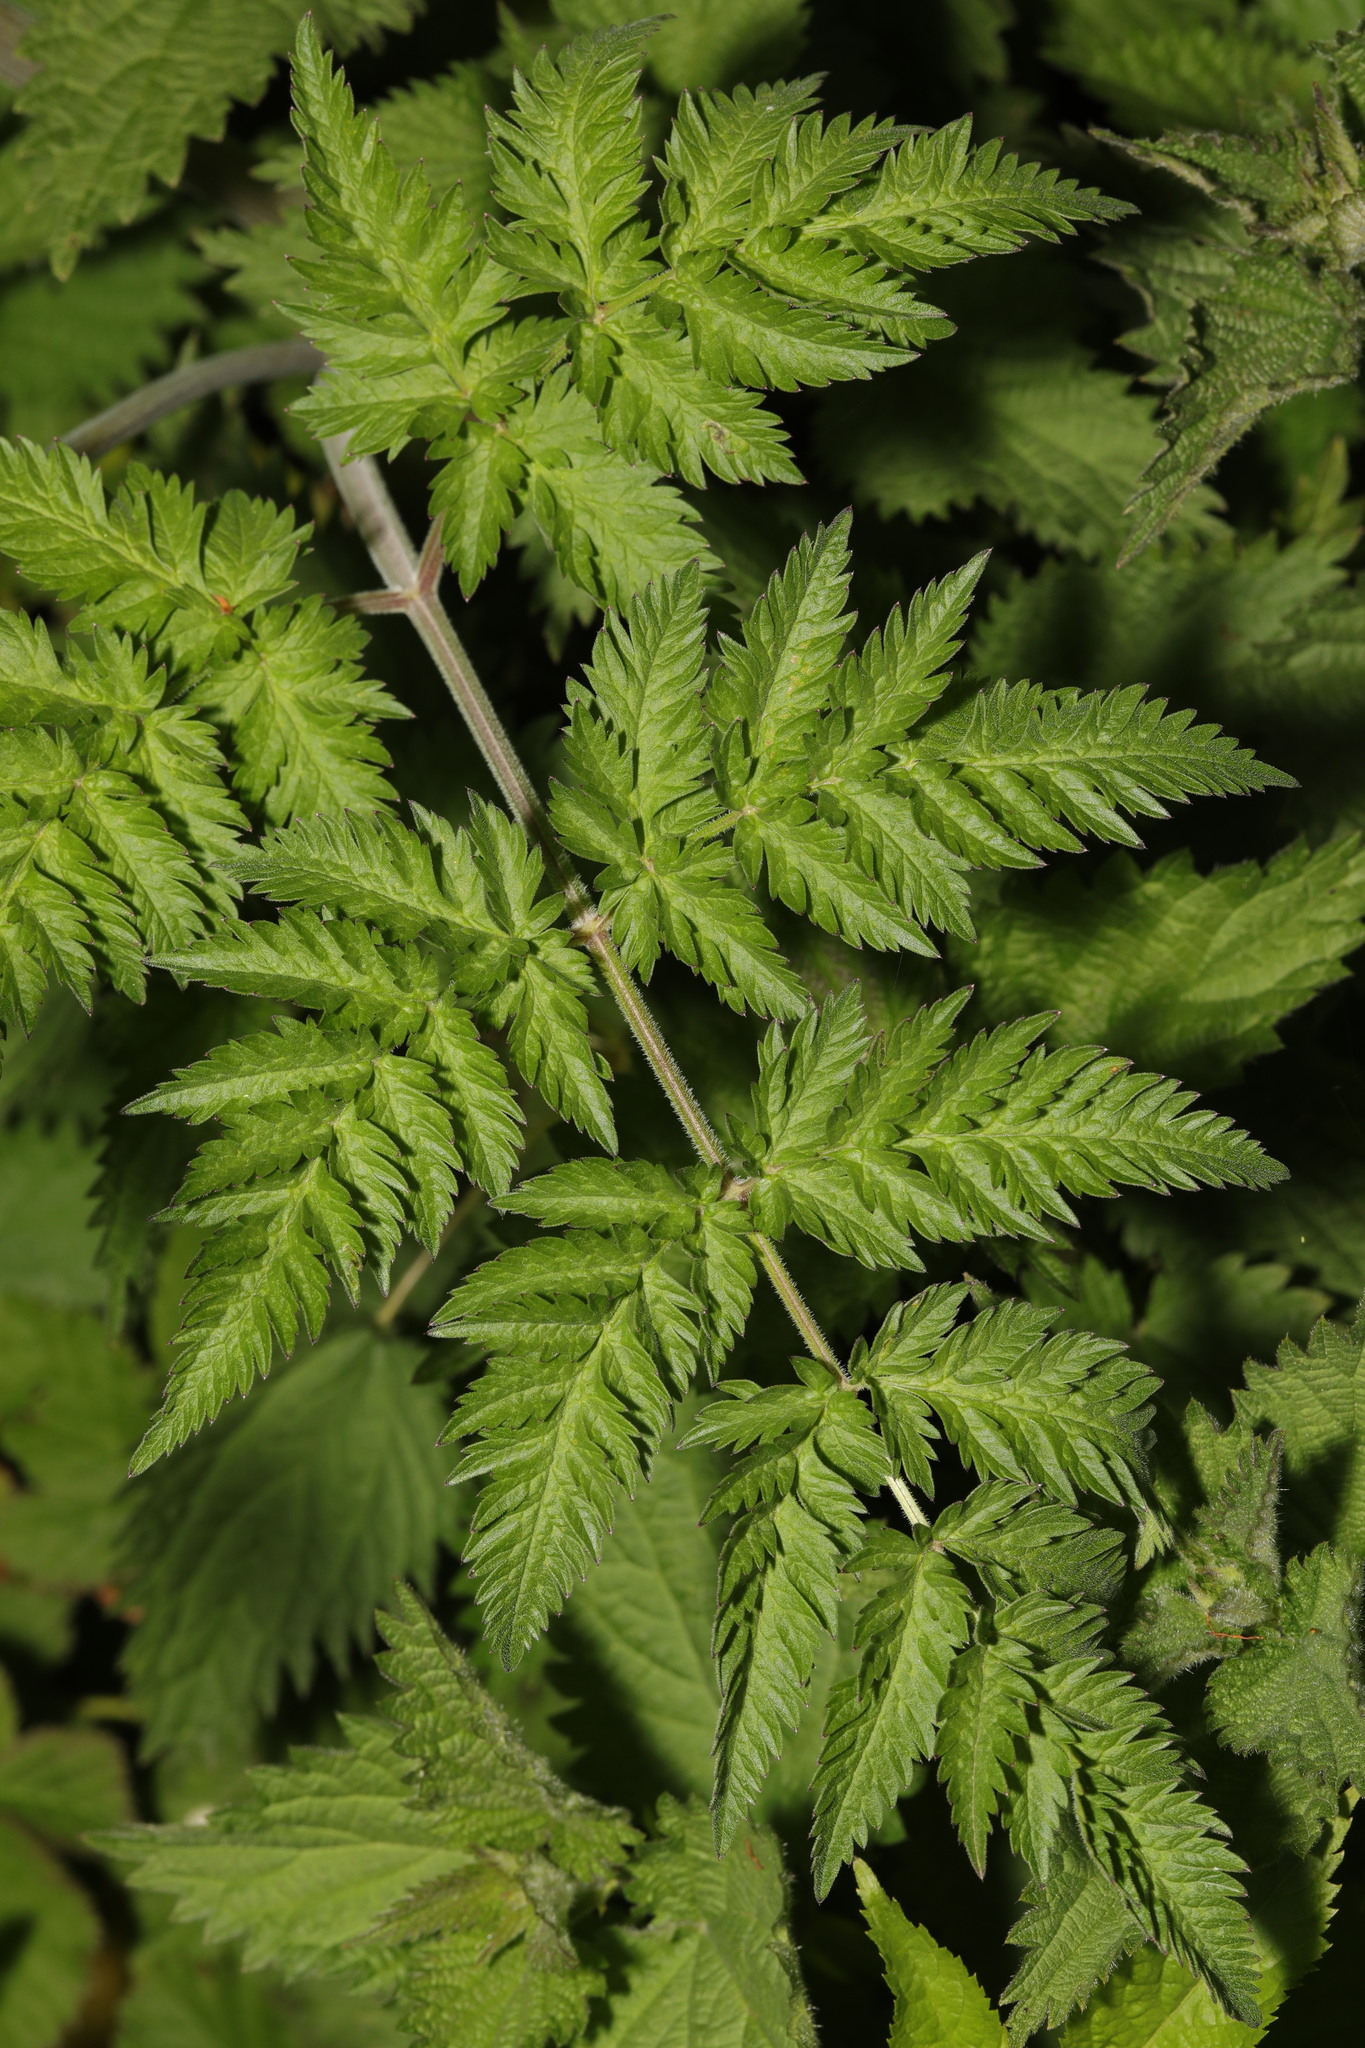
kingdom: Plantae
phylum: Tracheophyta
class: Magnoliopsida
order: Apiales
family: Apiaceae
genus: Anthriscus
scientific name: Anthriscus sylvestris
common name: Cow parsley
